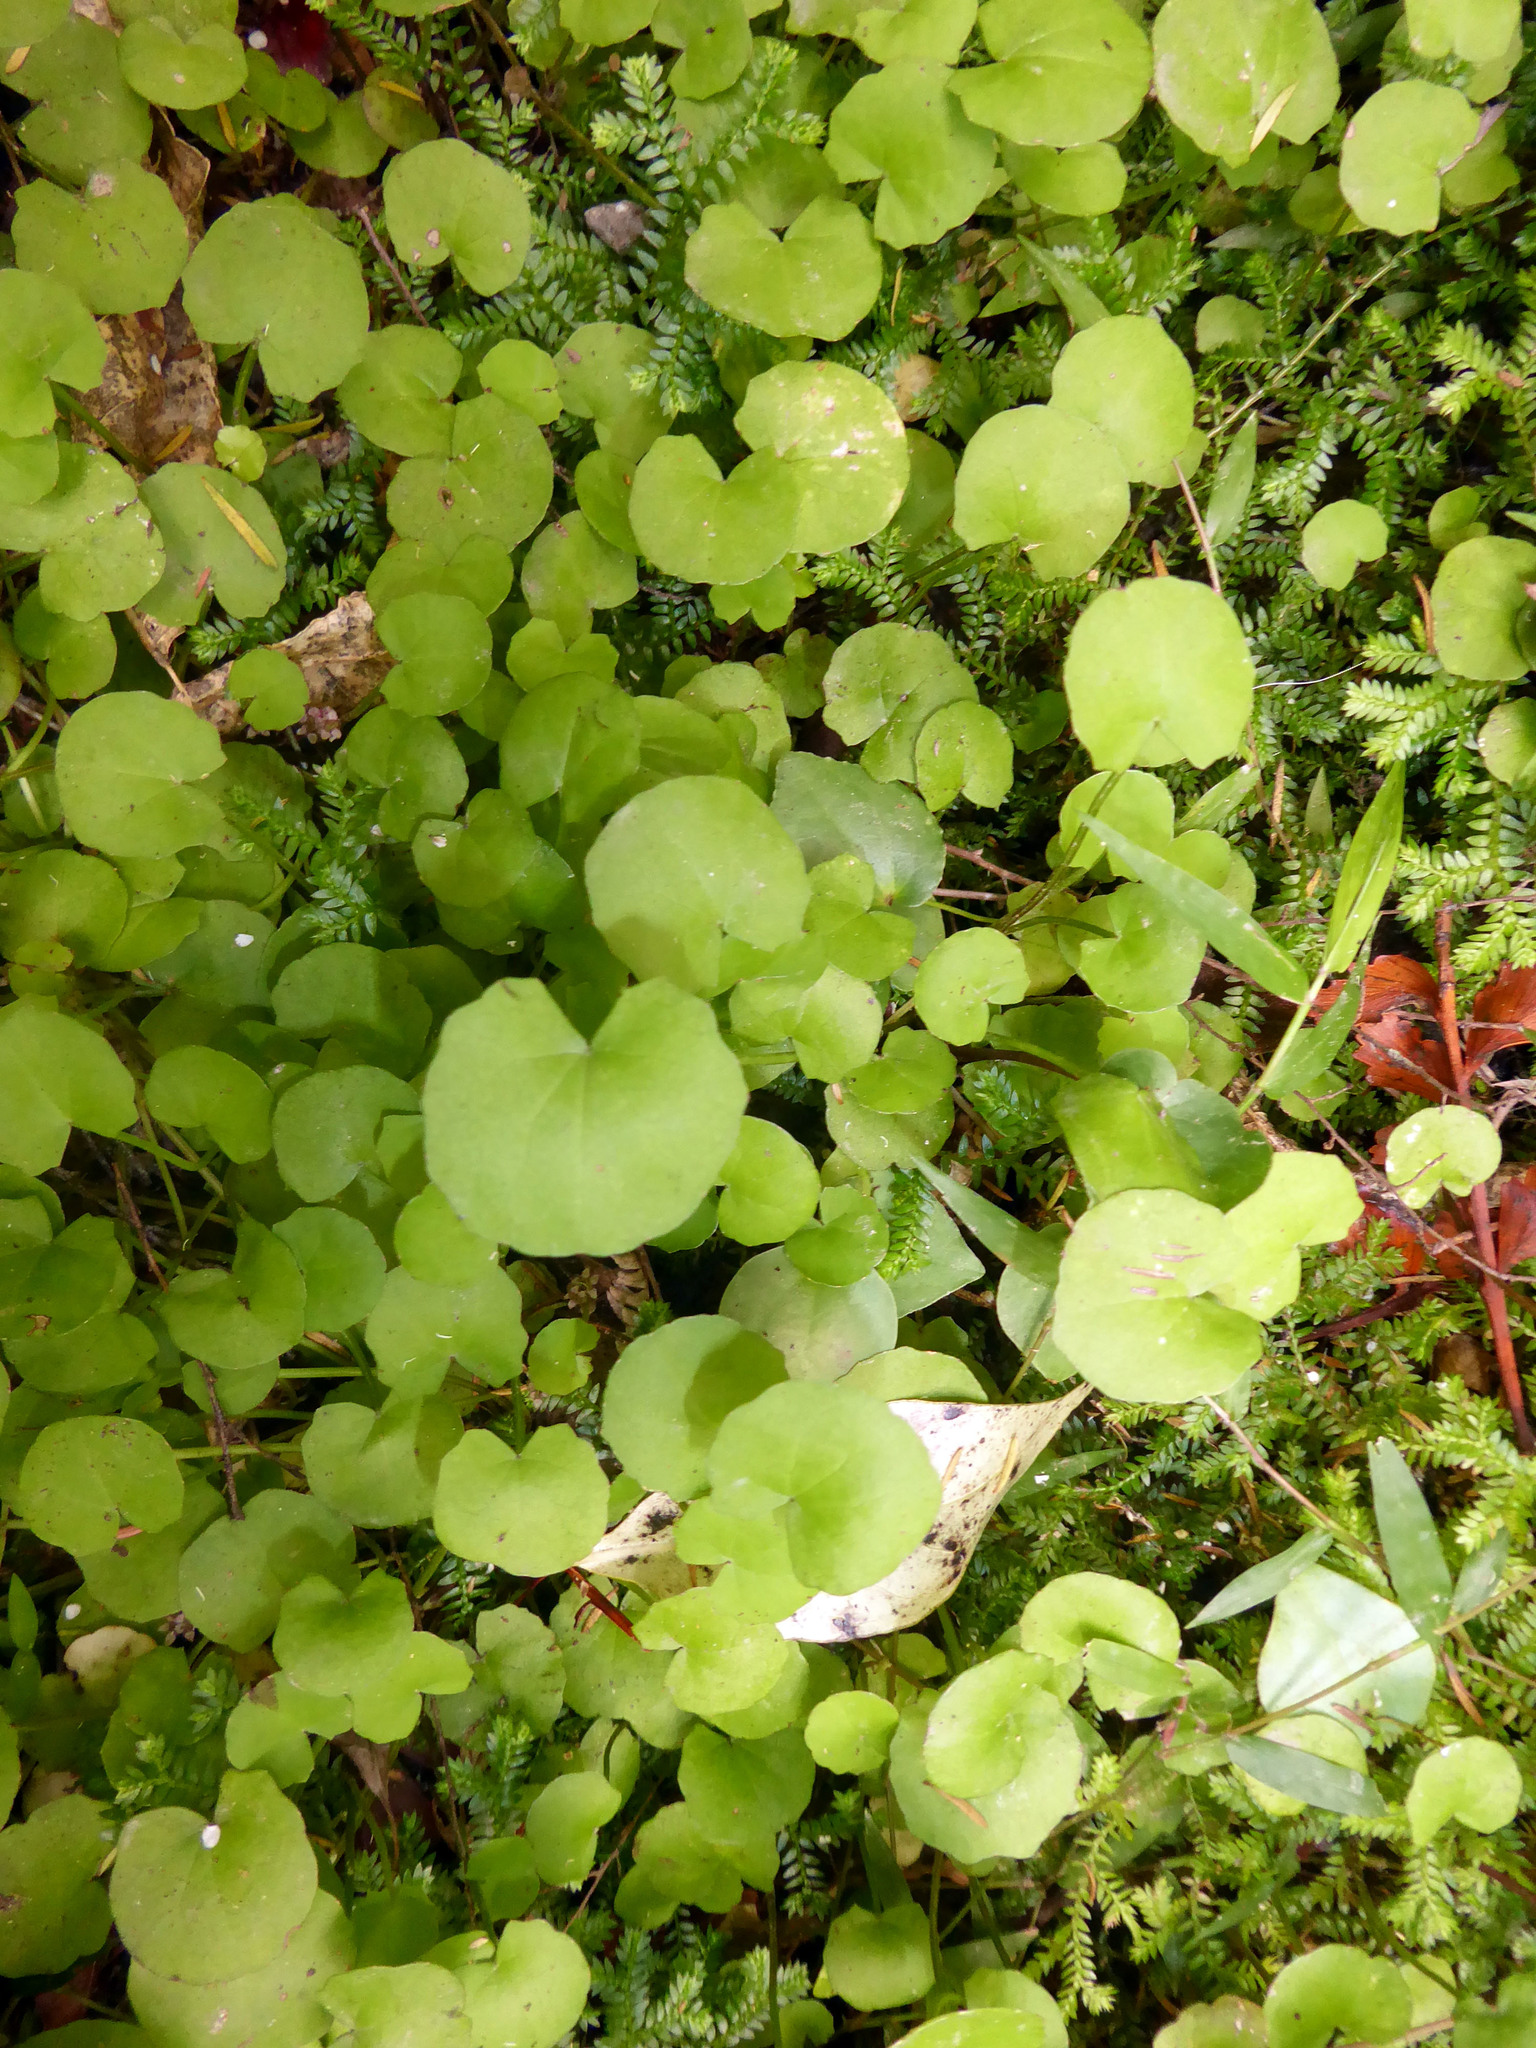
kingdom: Plantae
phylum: Tracheophyta
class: Magnoliopsida
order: Apiales
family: Apiaceae
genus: Centella
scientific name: Centella uniflora
